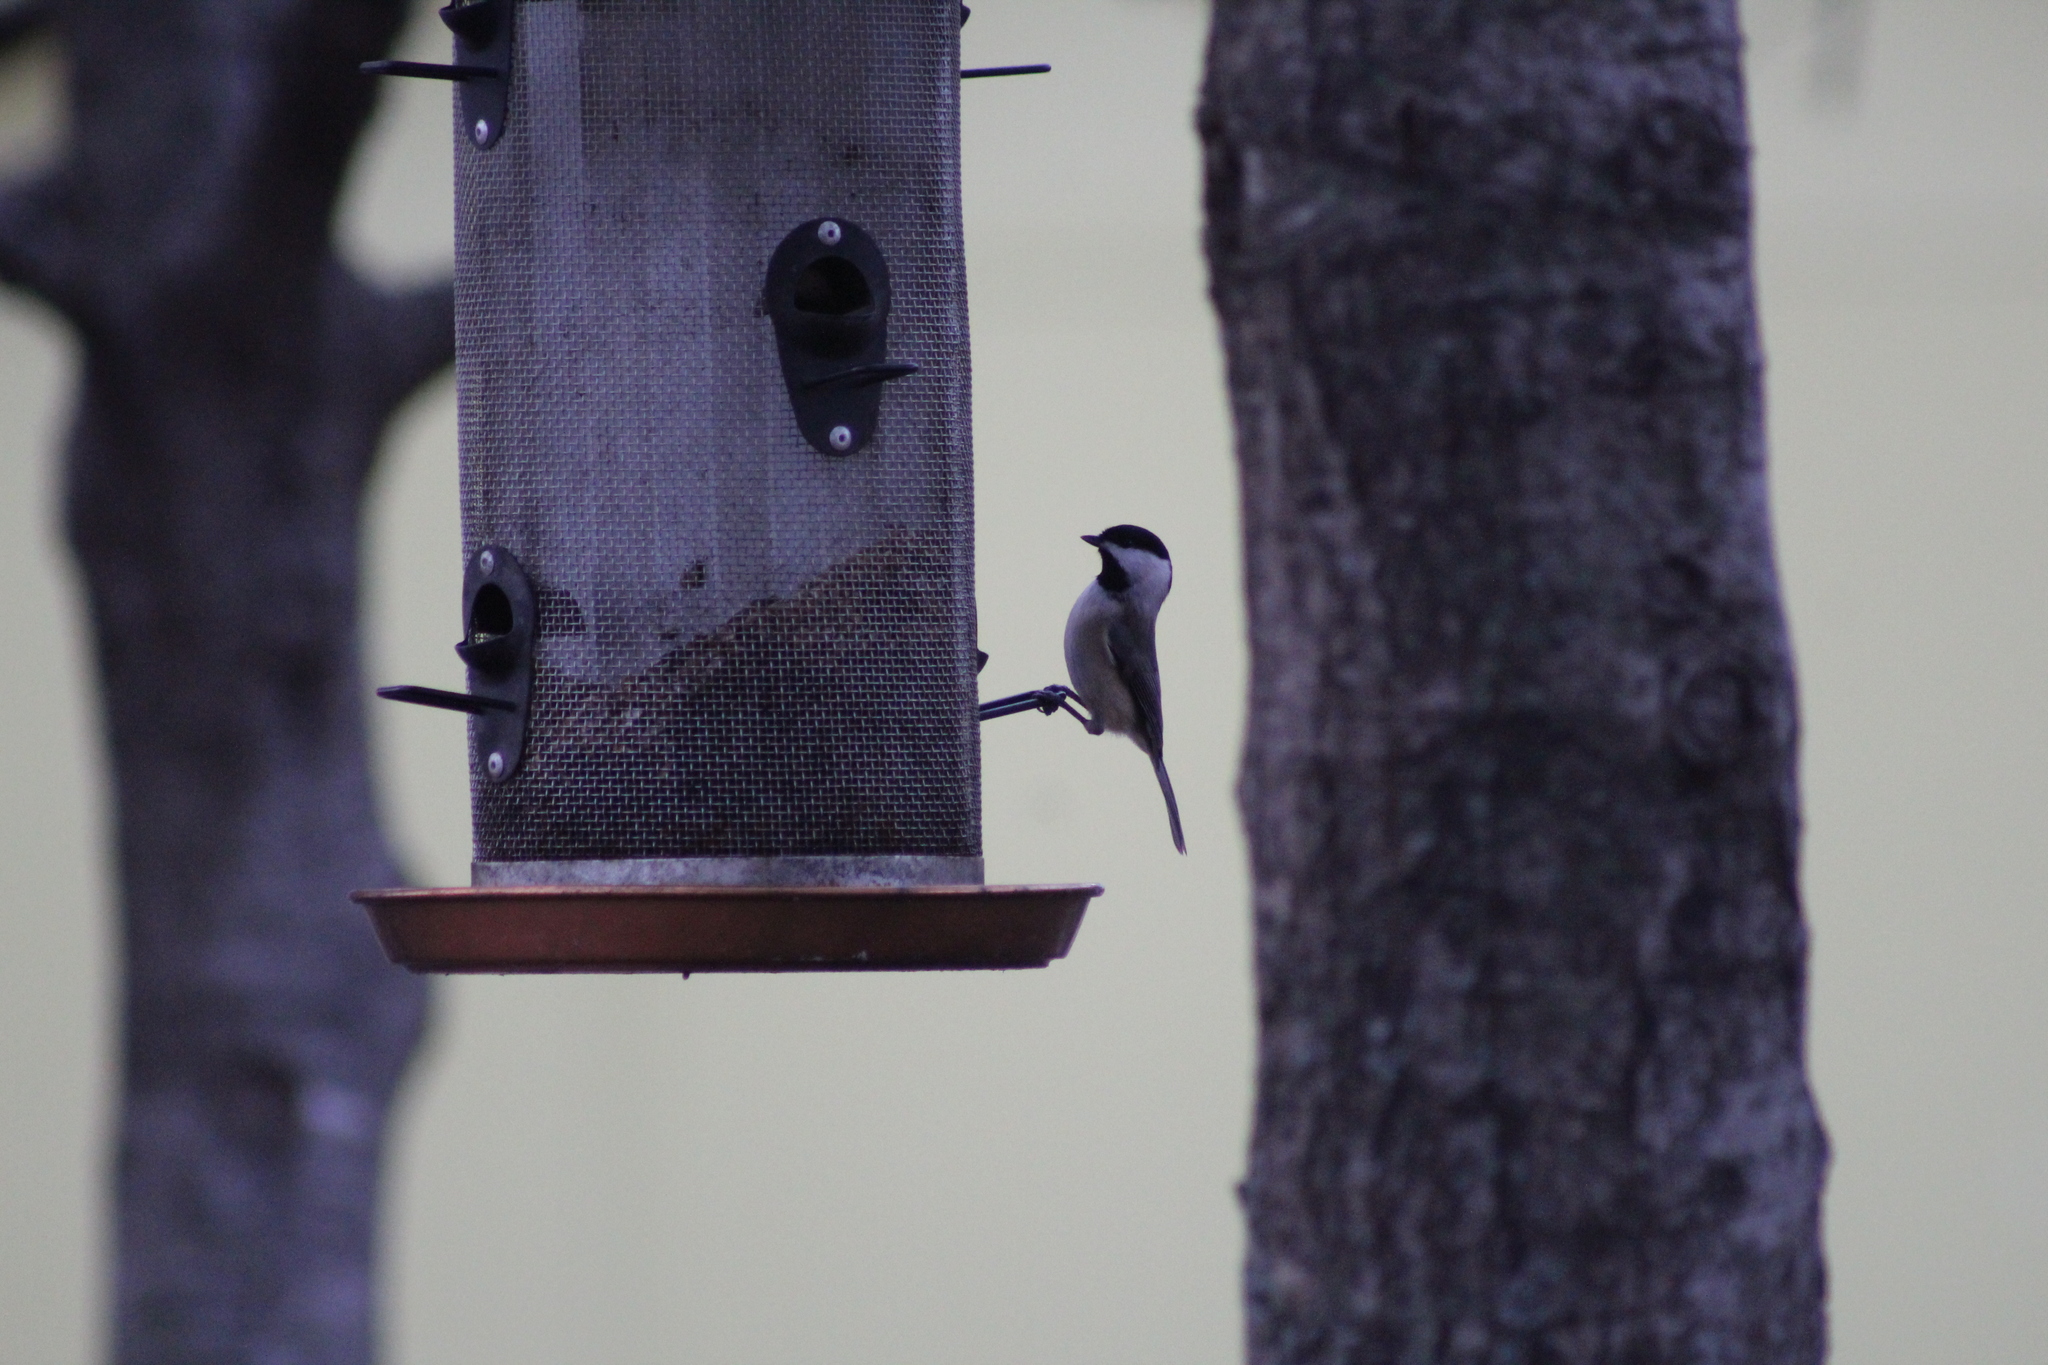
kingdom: Animalia
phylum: Chordata
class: Aves
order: Passeriformes
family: Paridae
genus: Poecile
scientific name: Poecile carolinensis
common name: Carolina chickadee
